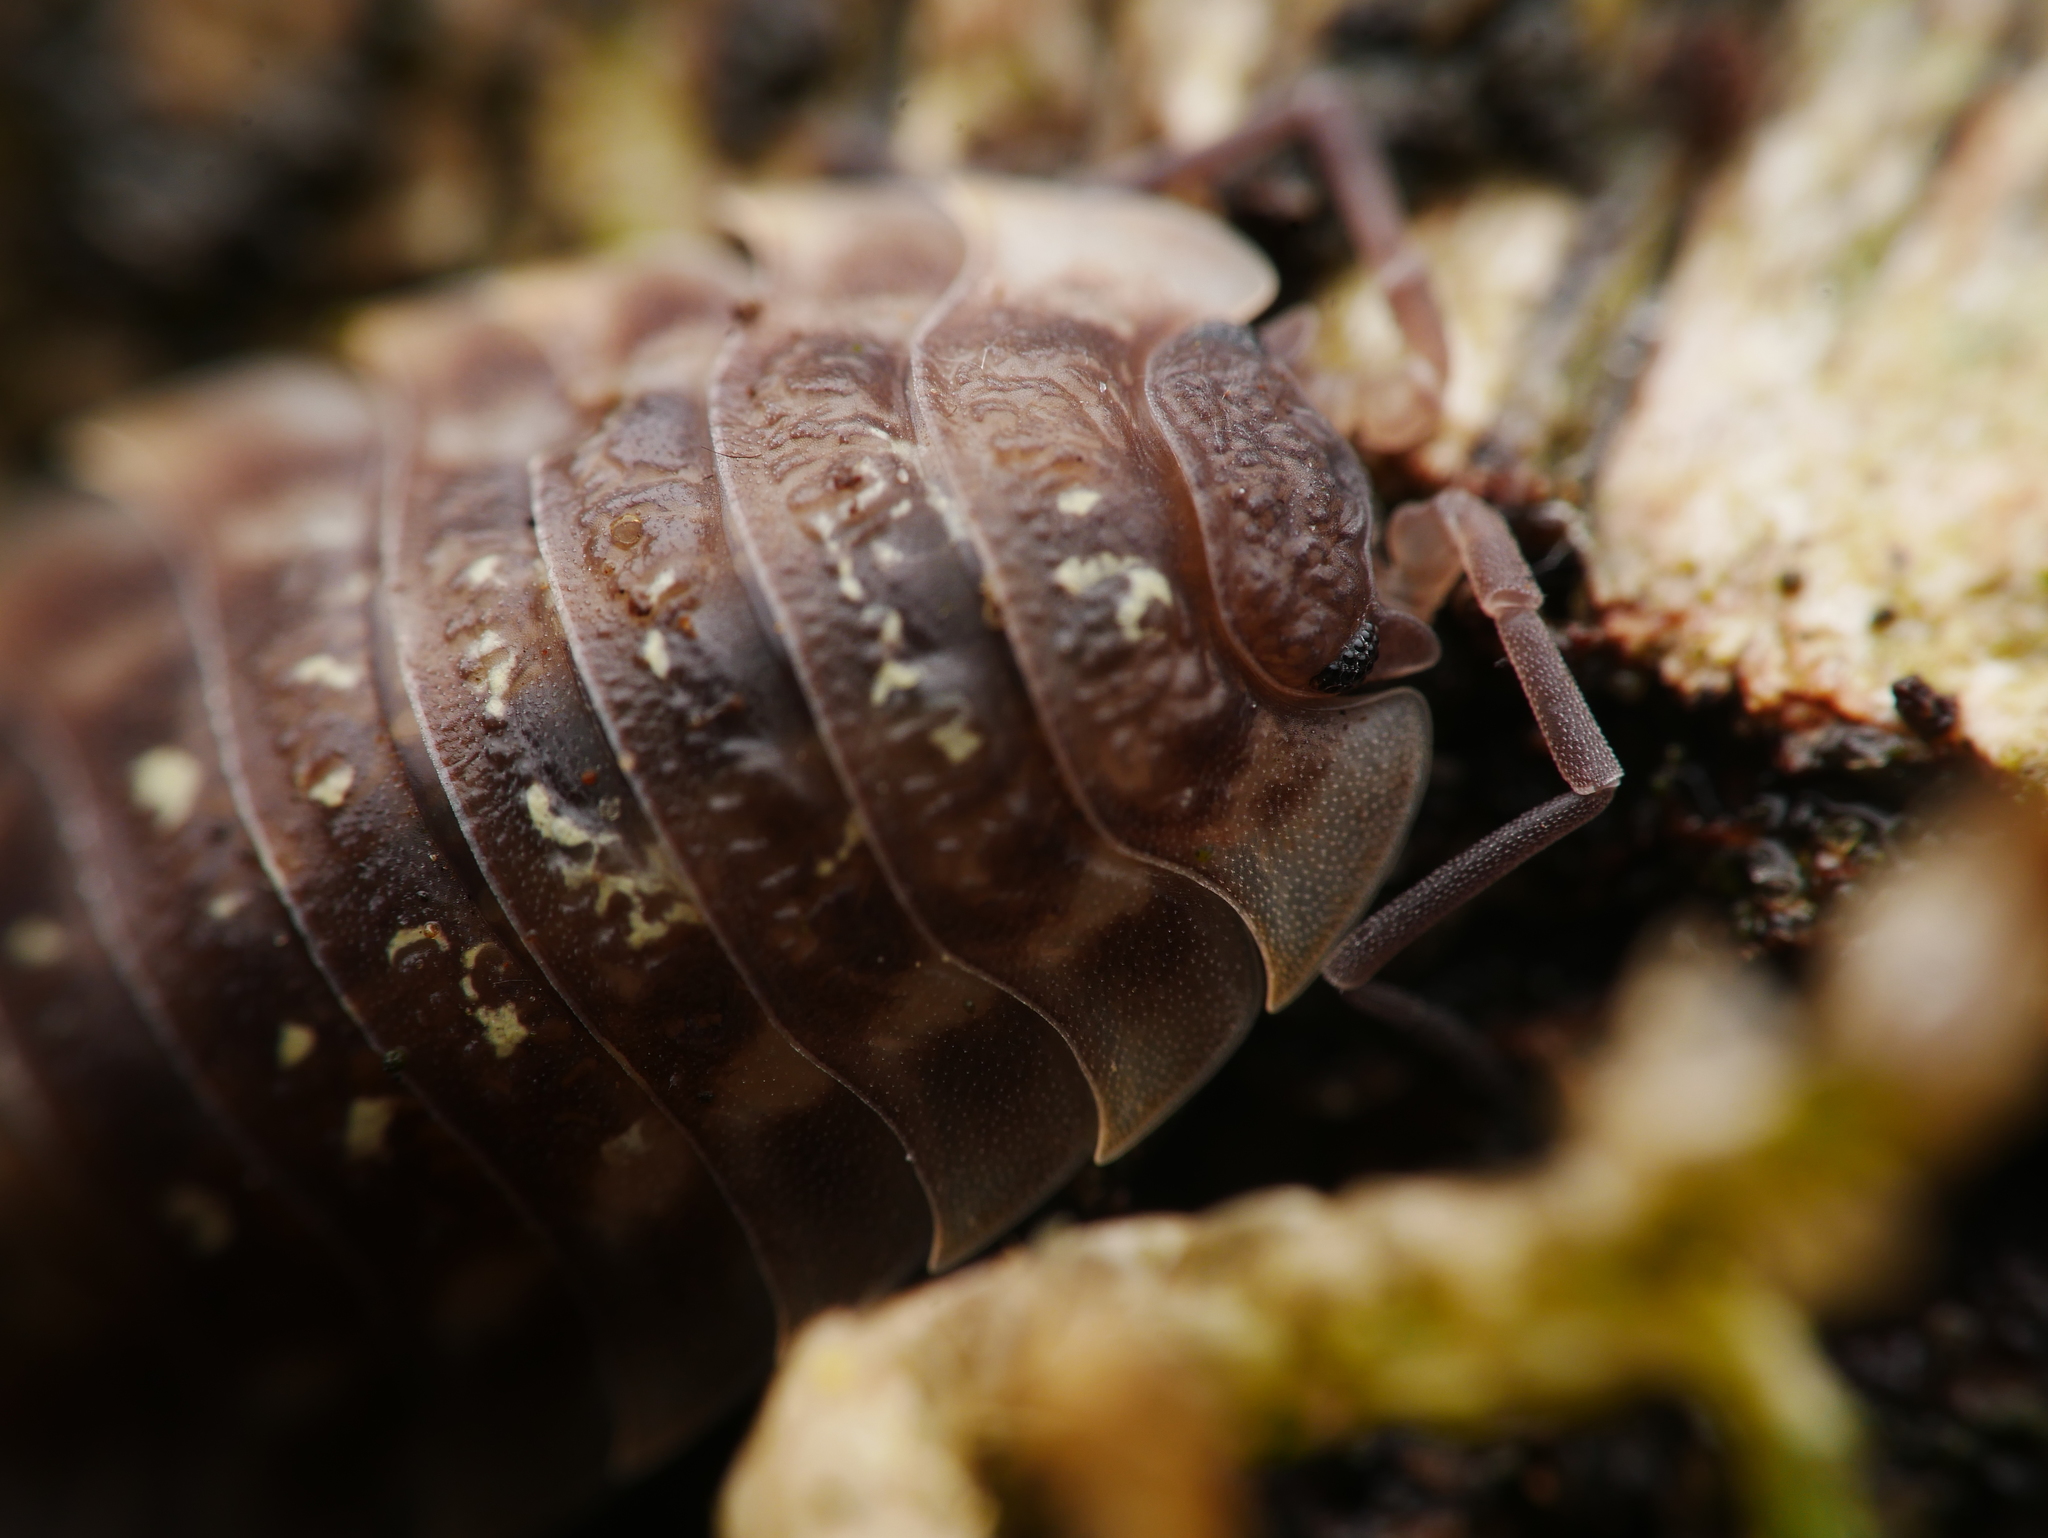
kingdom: Animalia
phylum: Arthropoda
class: Malacostraca
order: Isopoda
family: Oniscidae
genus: Oniscus
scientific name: Oniscus asellus
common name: Common shiny woodlouse
